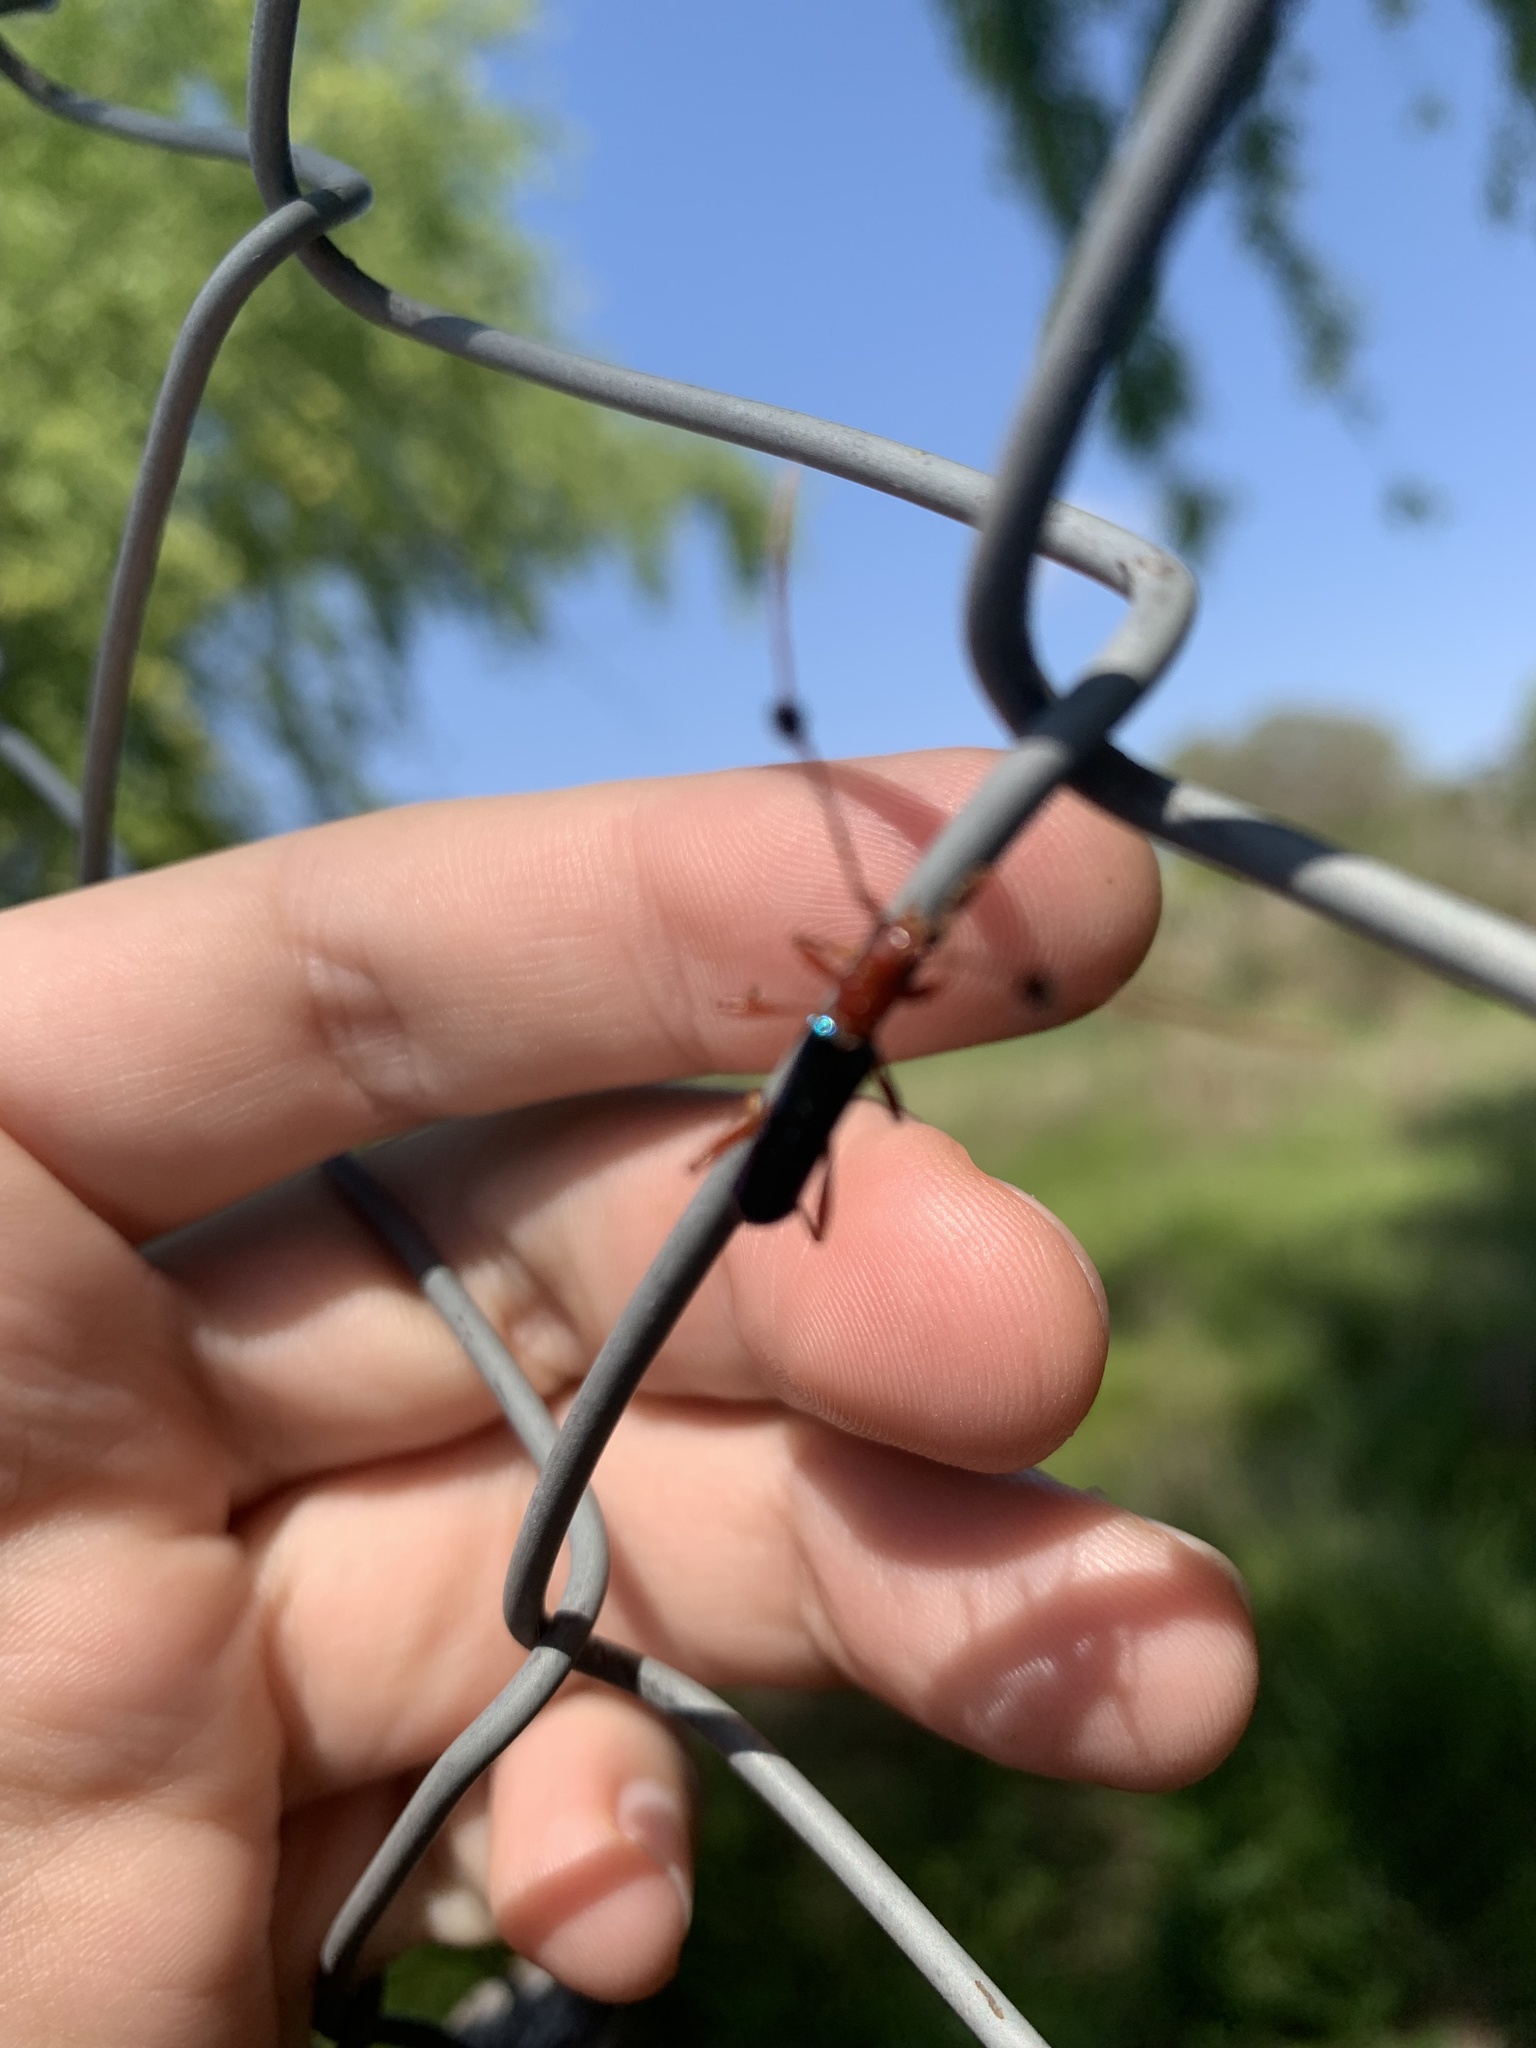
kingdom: Animalia
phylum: Arthropoda
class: Insecta
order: Coleoptera
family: Cerambycidae
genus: Paromoeocerus
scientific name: Paromoeocerus barbicornis
